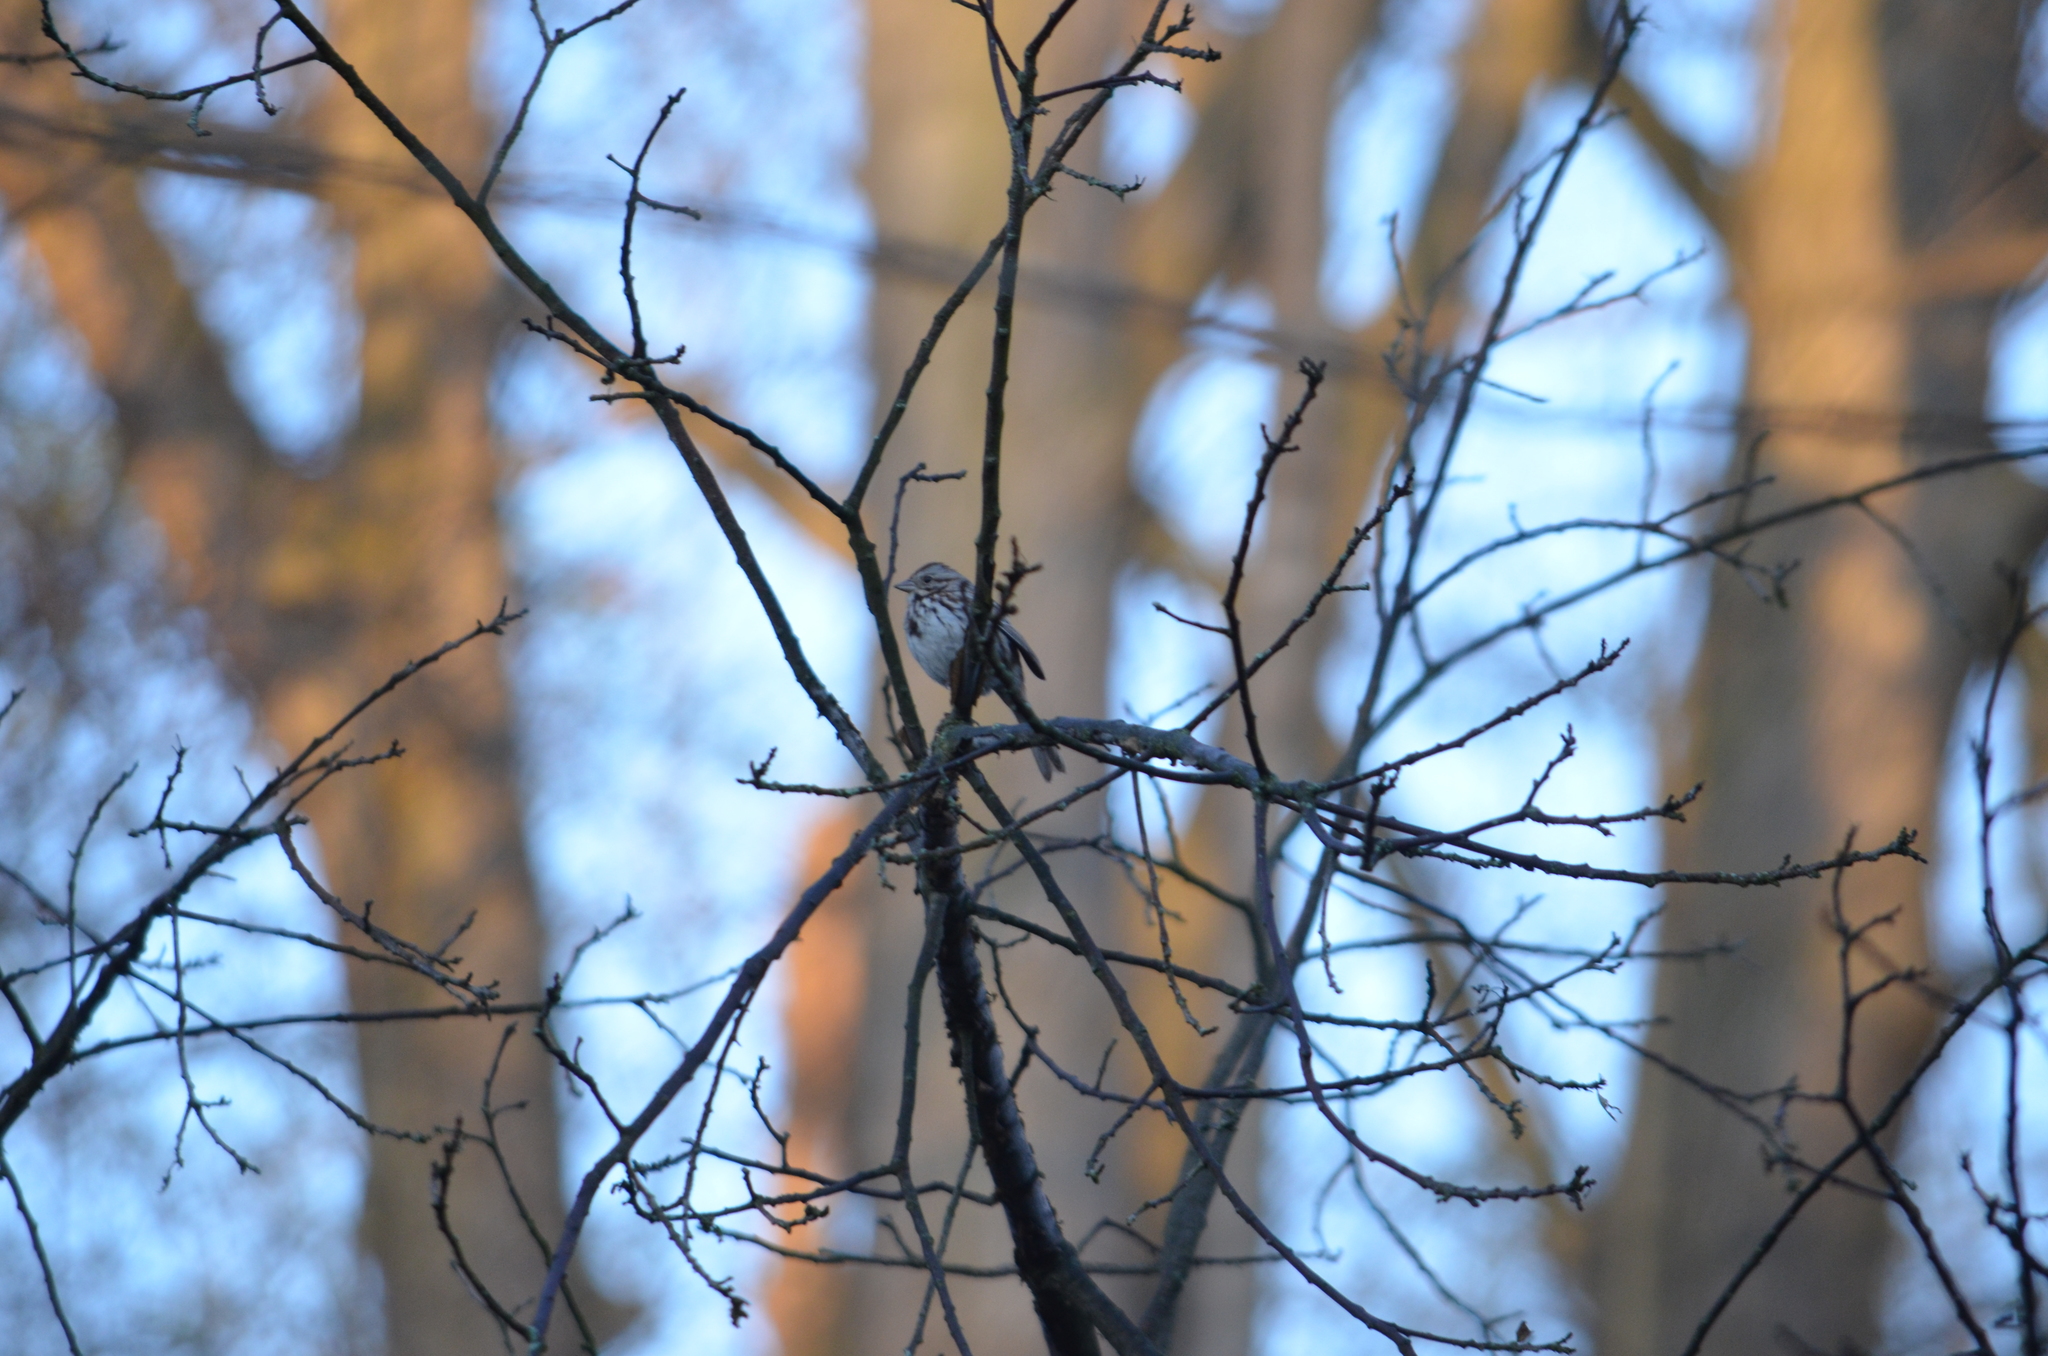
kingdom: Animalia
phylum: Chordata
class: Aves
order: Passeriformes
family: Passerellidae
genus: Melospiza
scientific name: Melospiza melodia
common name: Song sparrow
